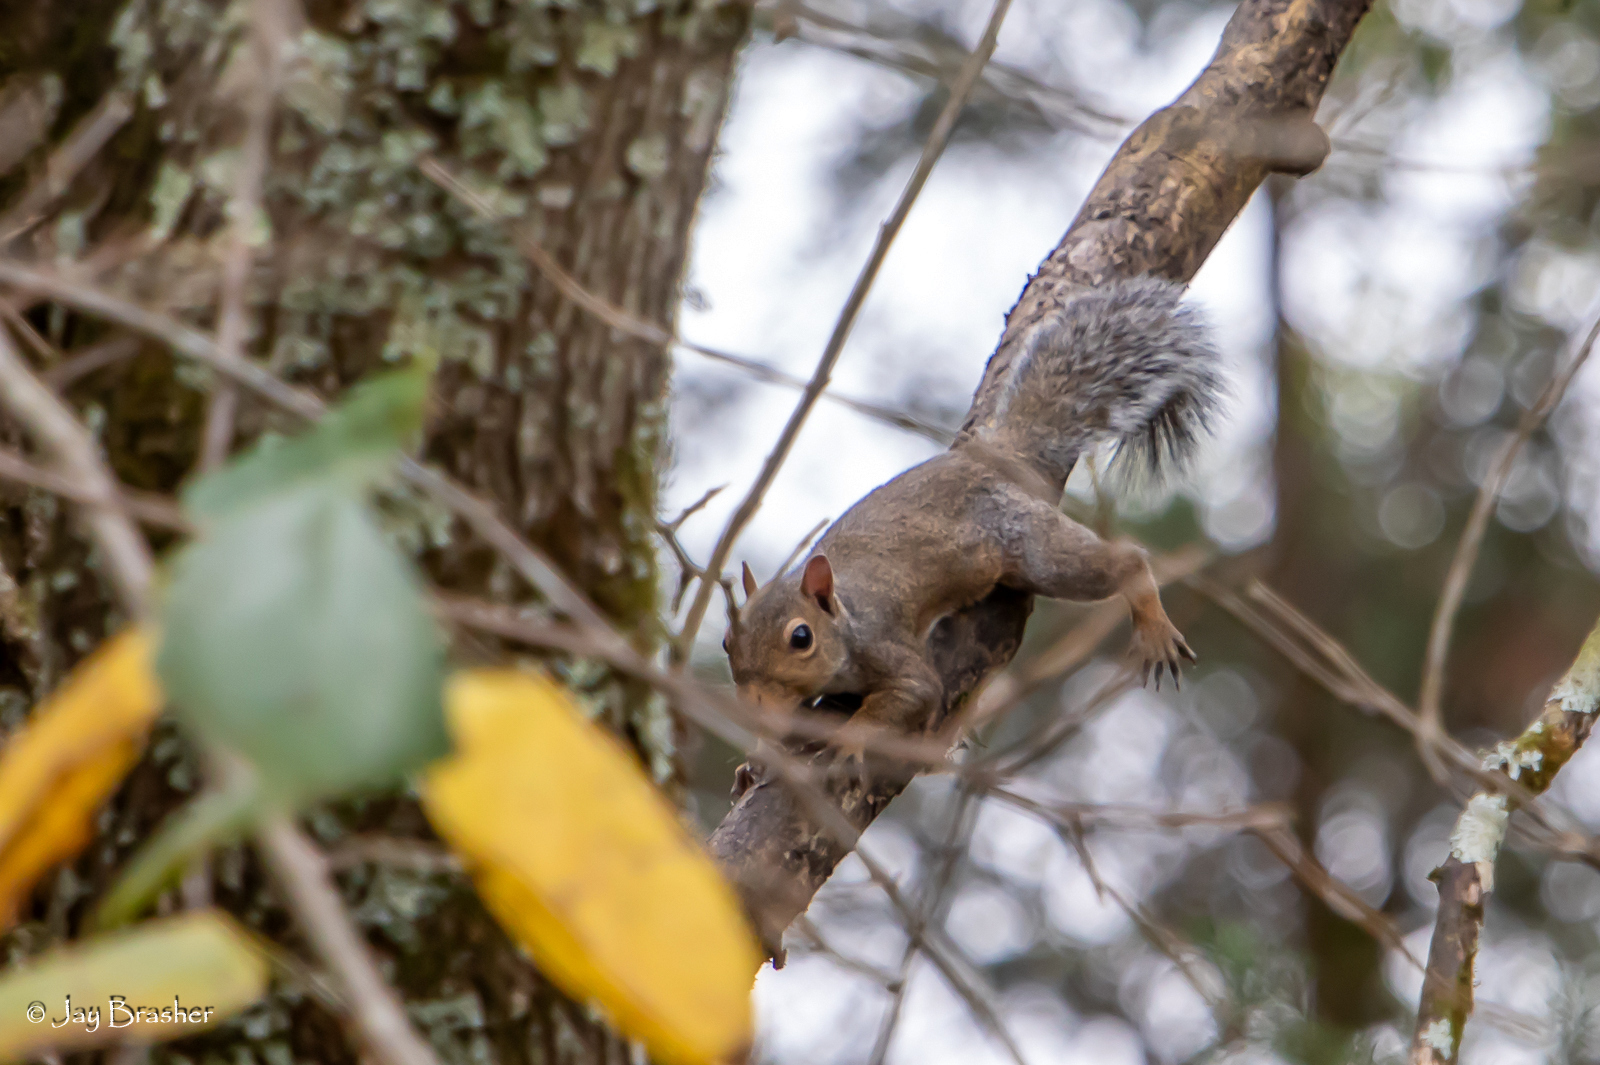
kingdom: Animalia
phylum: Chordata
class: Mammalia
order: Rodentia
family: Sciuridae
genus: Sciurus
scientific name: Sciurus carolinensis
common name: Eastern gray squirrel
